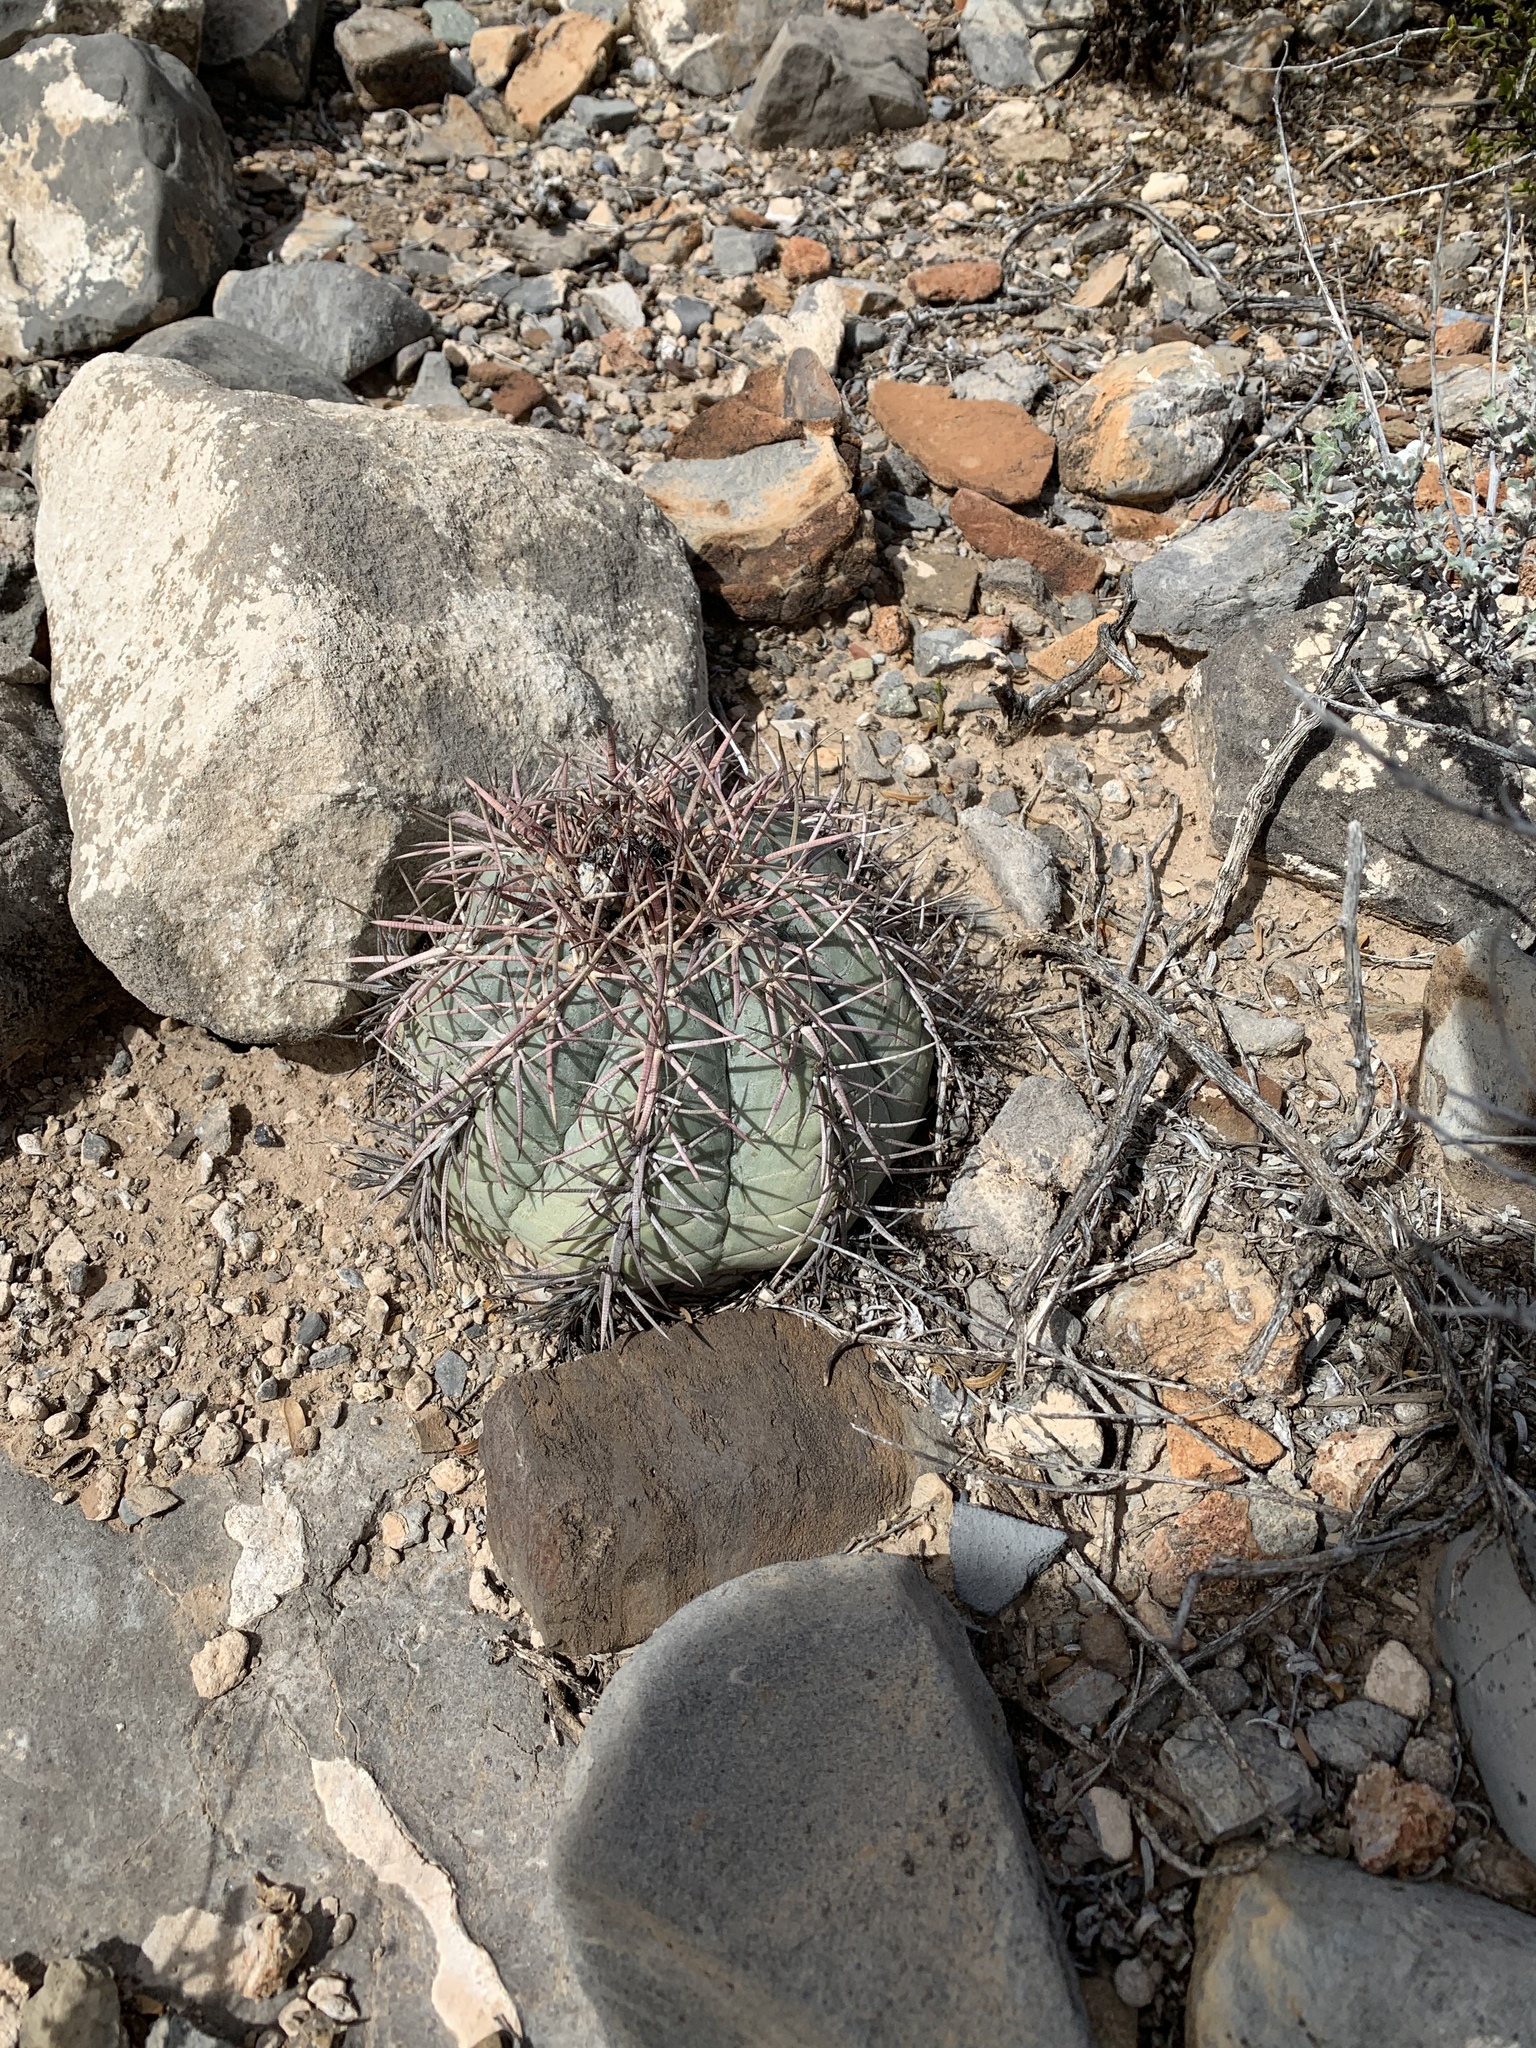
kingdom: Plantae
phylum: Tracheophyta
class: Magnoliopsida
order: Caryophyllales
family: Cactaceae
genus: Echinocactus
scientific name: Echinocactus horizonthalonius
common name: Devilshead
